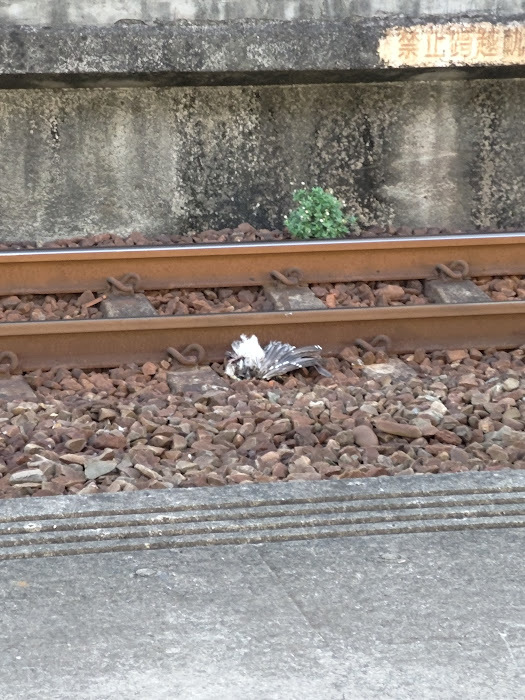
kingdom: Animalia
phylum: Chordata
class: Aves
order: Pelecaniformes
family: Ardeidae
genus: Nycticorax
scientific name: Nycticorax nycticorax
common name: Black-crowned night heron
